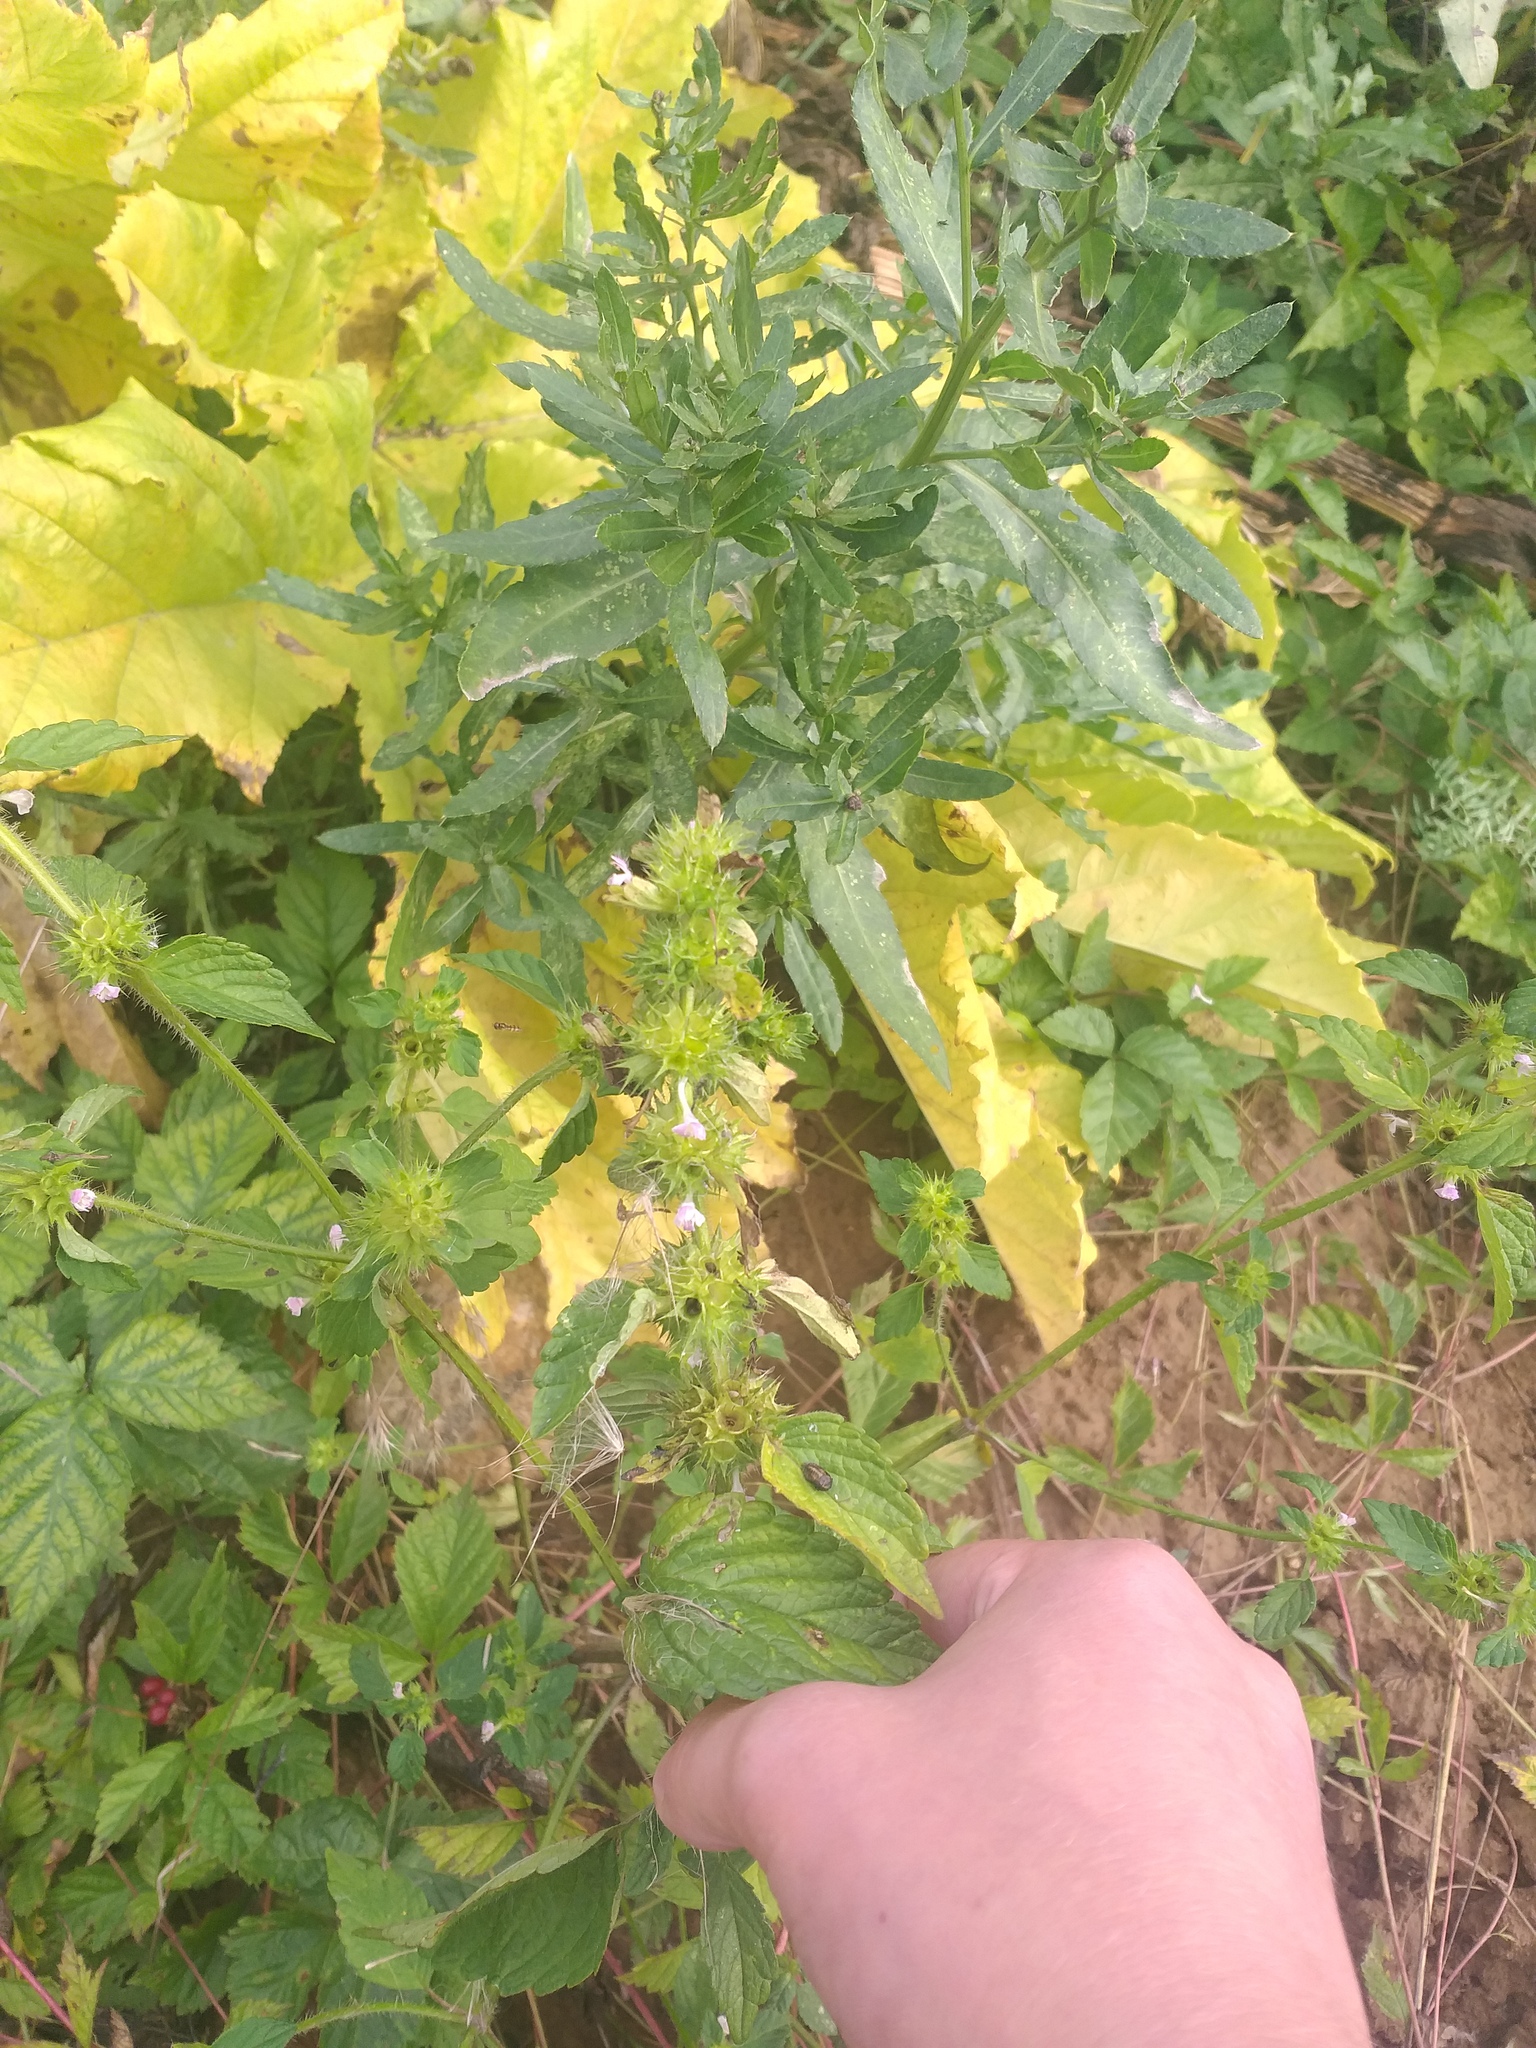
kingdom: Plantae
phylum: Tracheophyta
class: Magnoliopsida
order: Lamiales
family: Lamiaceae
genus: Galeopsis
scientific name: Galeopsis bifida
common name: Bifid hemp-nettle
